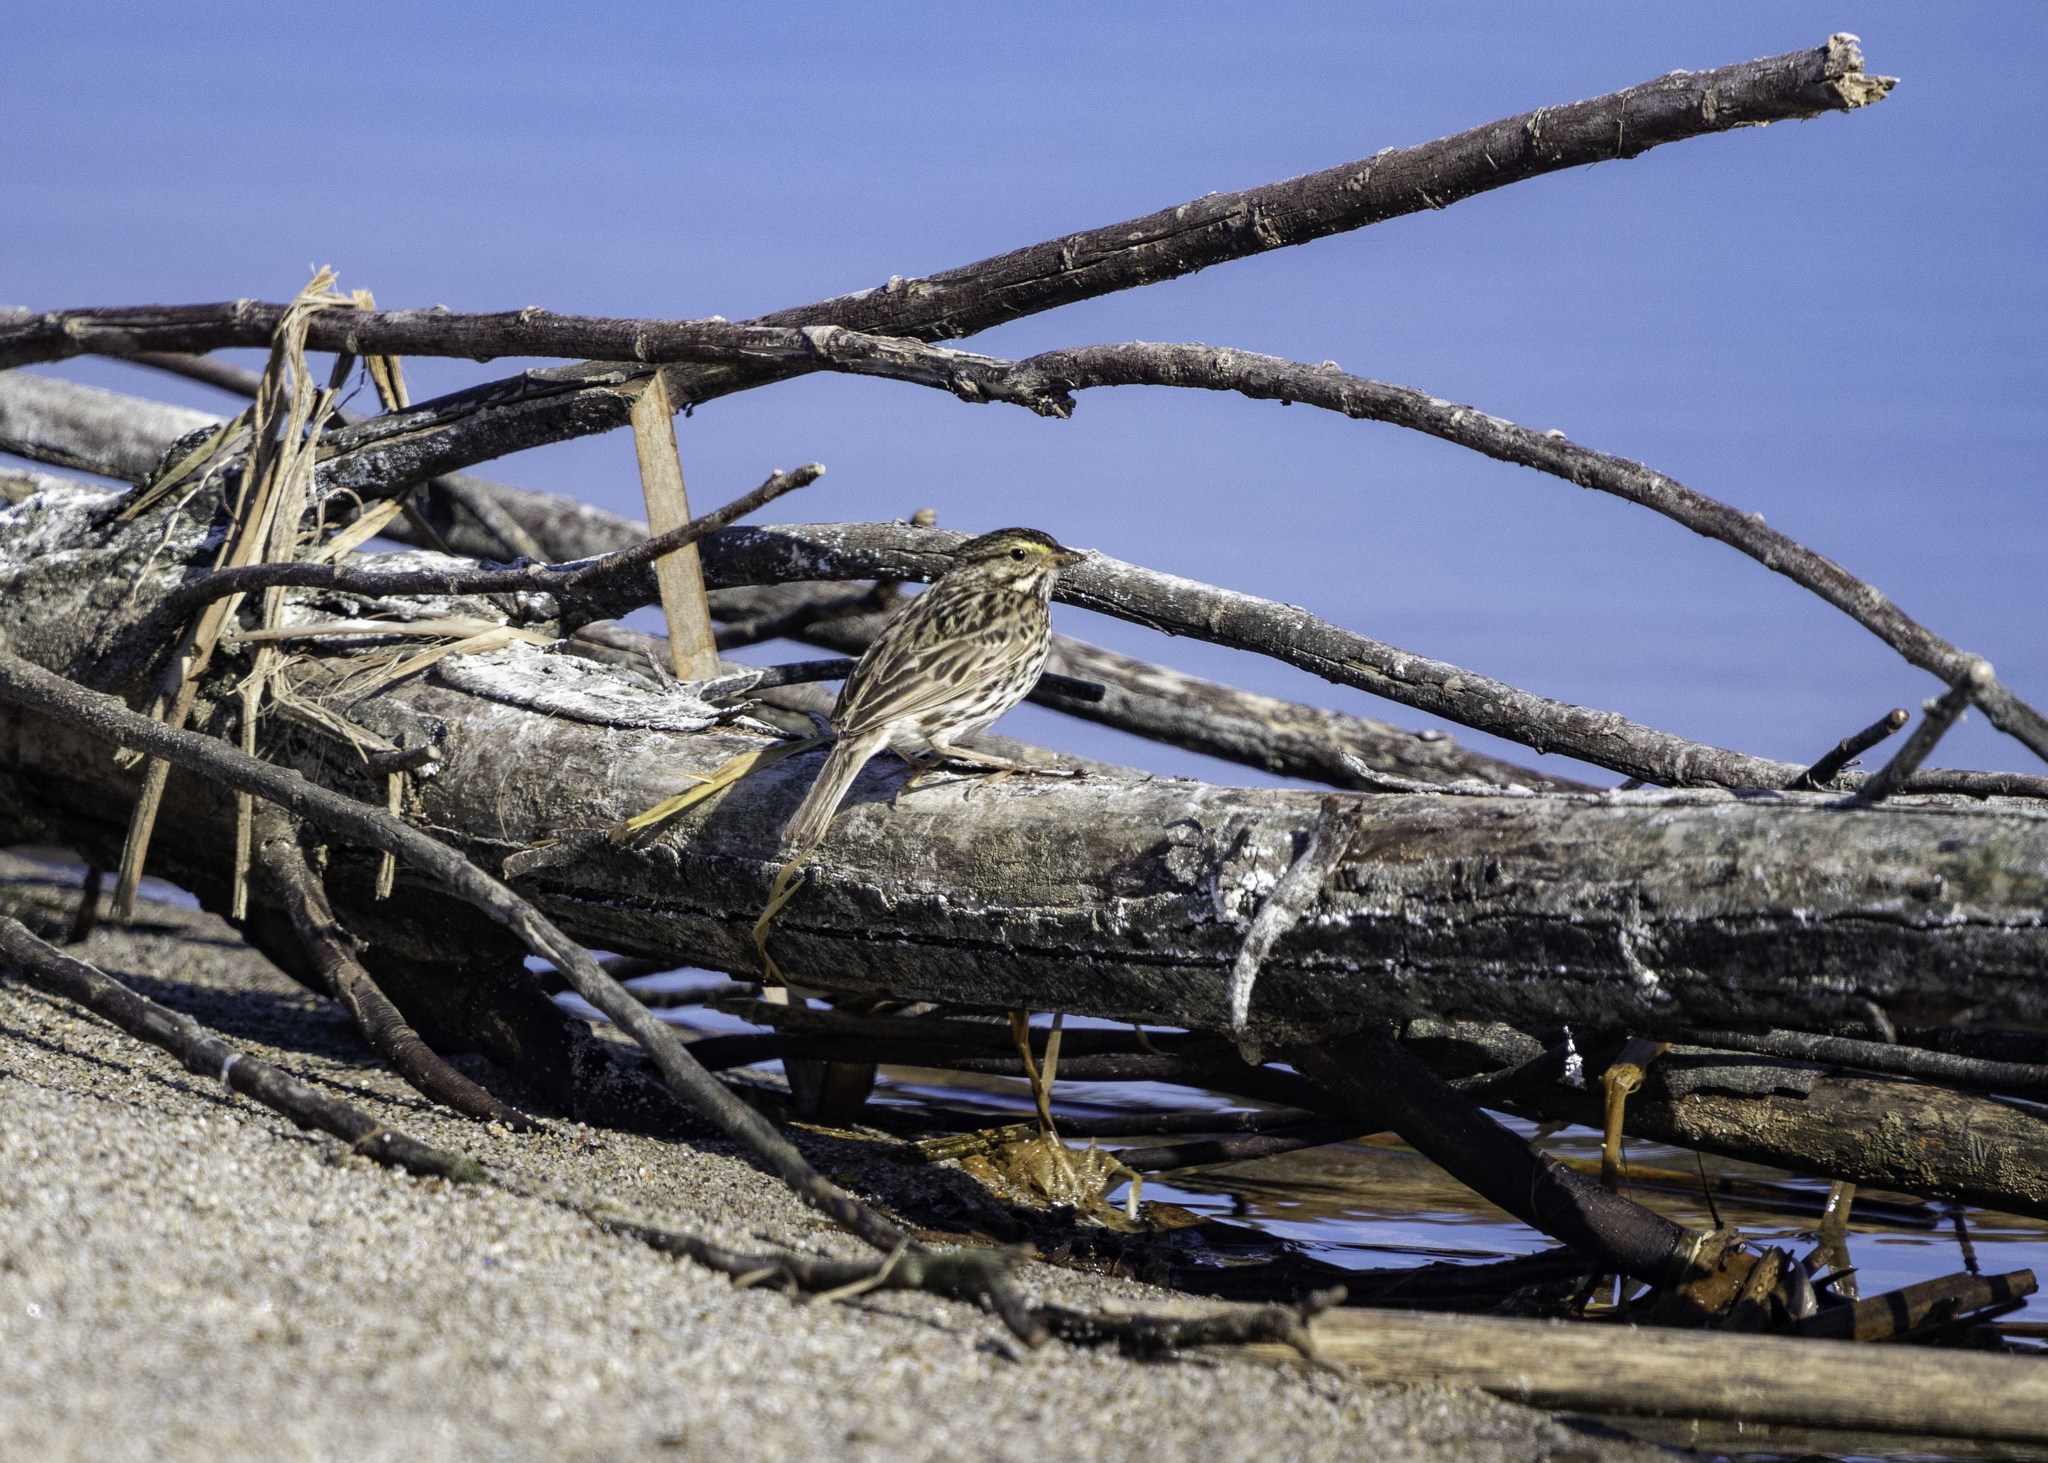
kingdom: Animalia
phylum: Chordata
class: Aves
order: Passeriformes
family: Passerellidae
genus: Passerculus
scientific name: Passerculus sandwichensis
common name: Savannah sparrow
